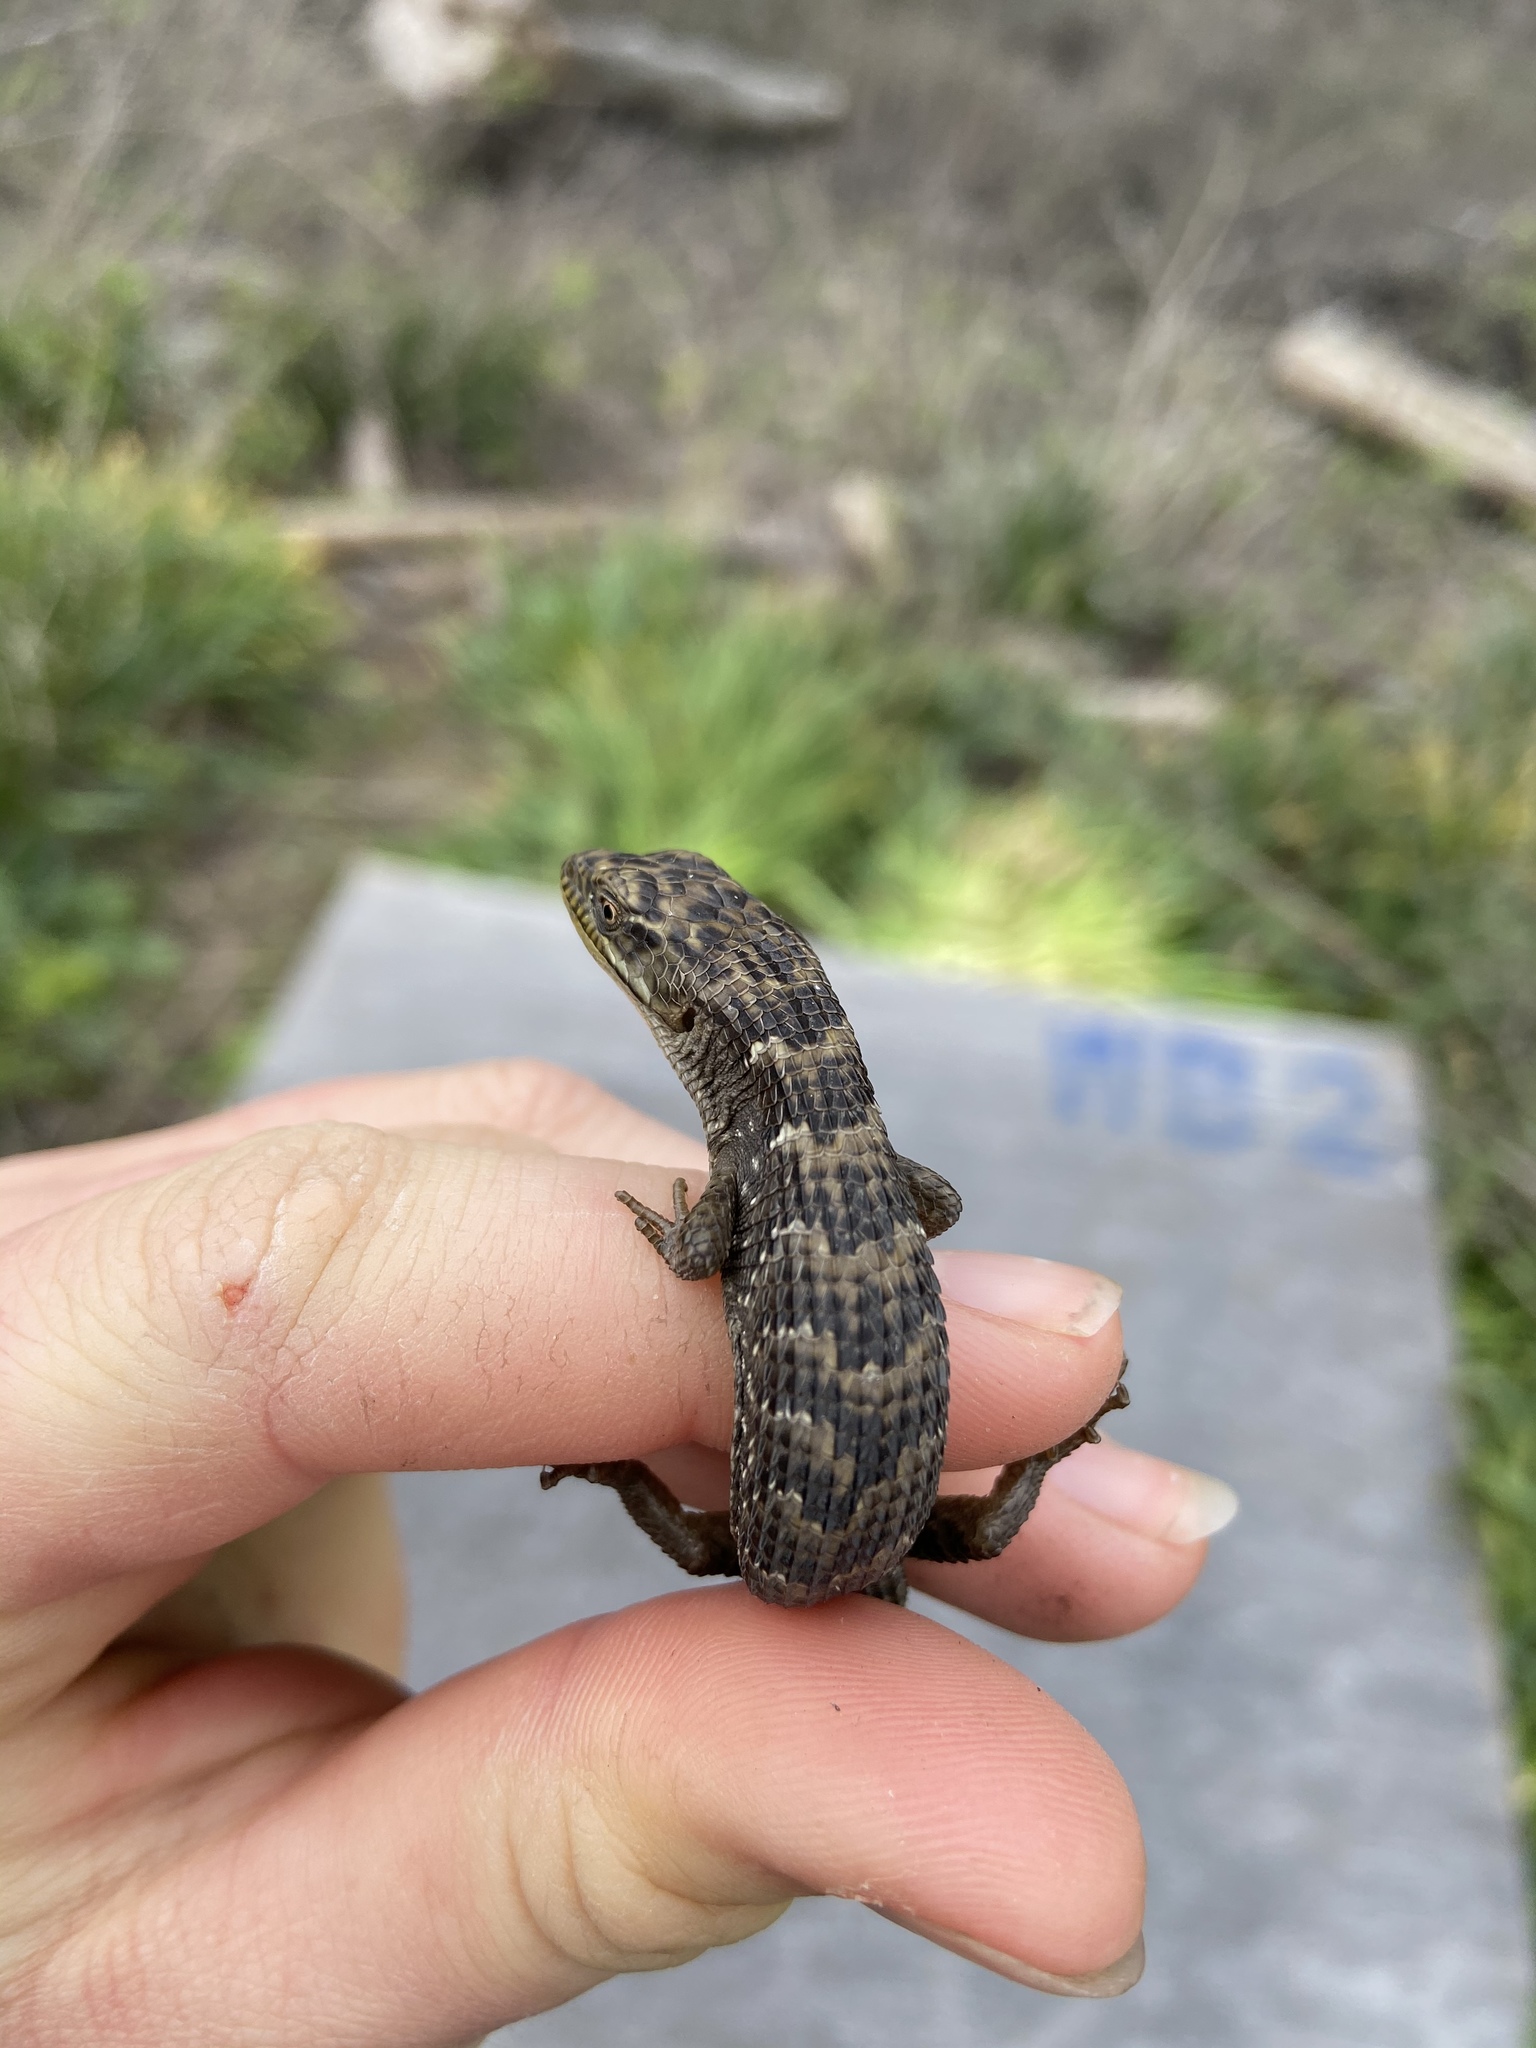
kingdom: Animalia
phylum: Chordata
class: Squamata
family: Anguidae
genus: Elgaria
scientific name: Elgaria multicarinata
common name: Southern alligator lizard
